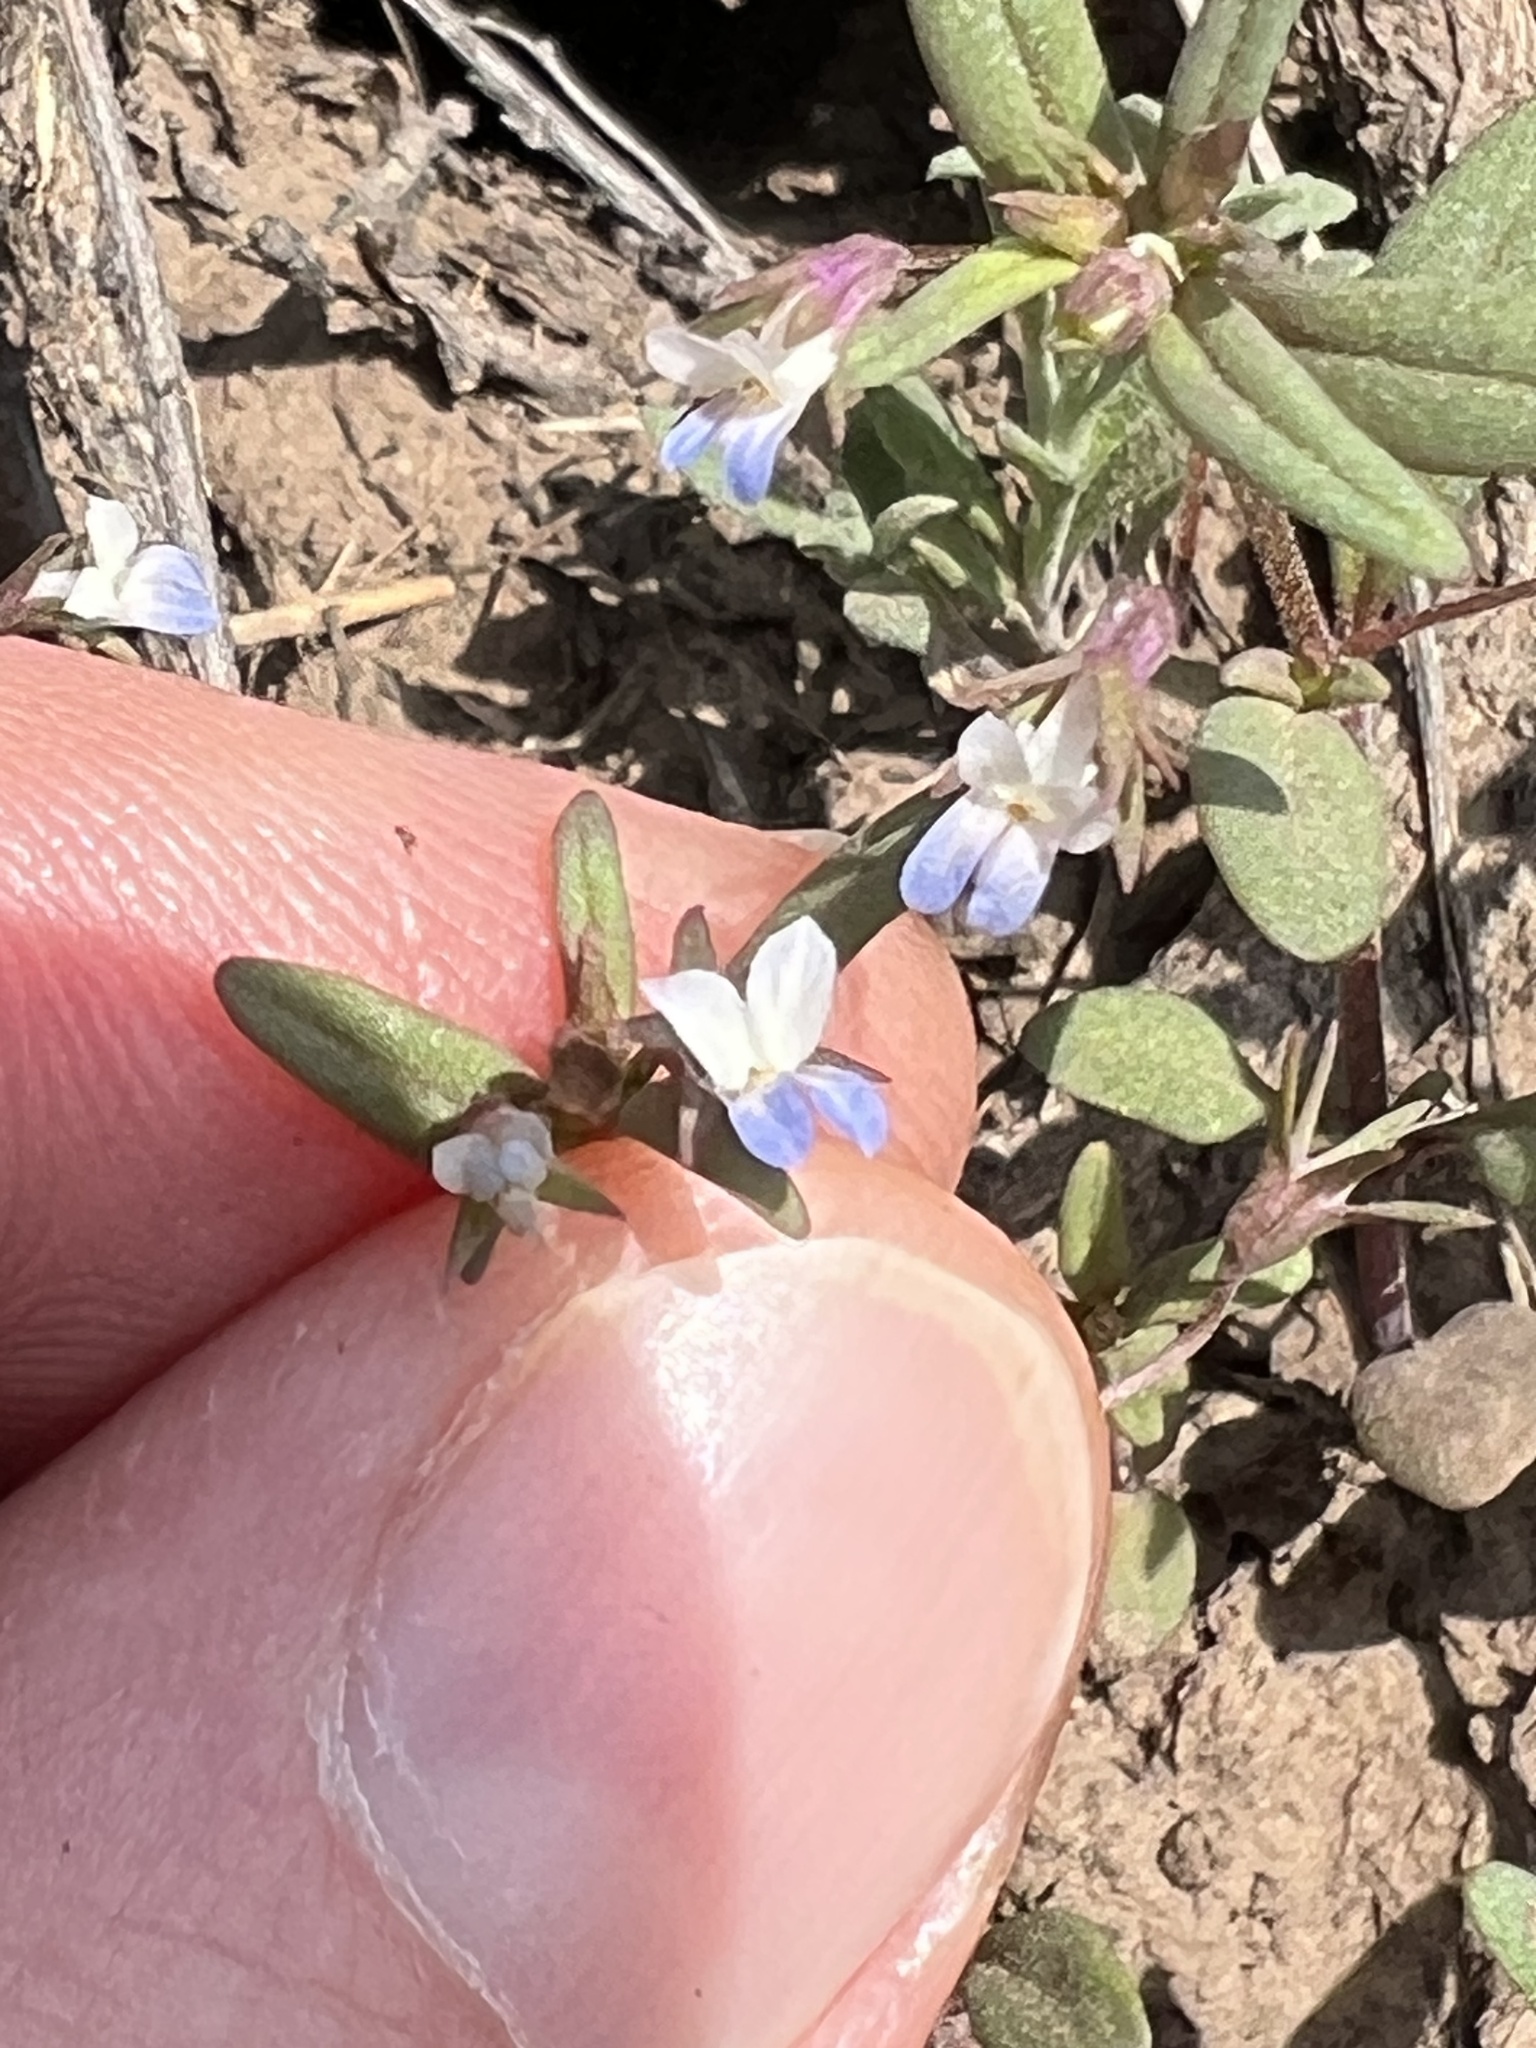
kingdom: Plantae
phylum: Tracheophyta
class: Magnoliopsida
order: Lamiales
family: Plantaginaceae
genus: Collinsia
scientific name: Collinsia parviflora
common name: Blue-lips
